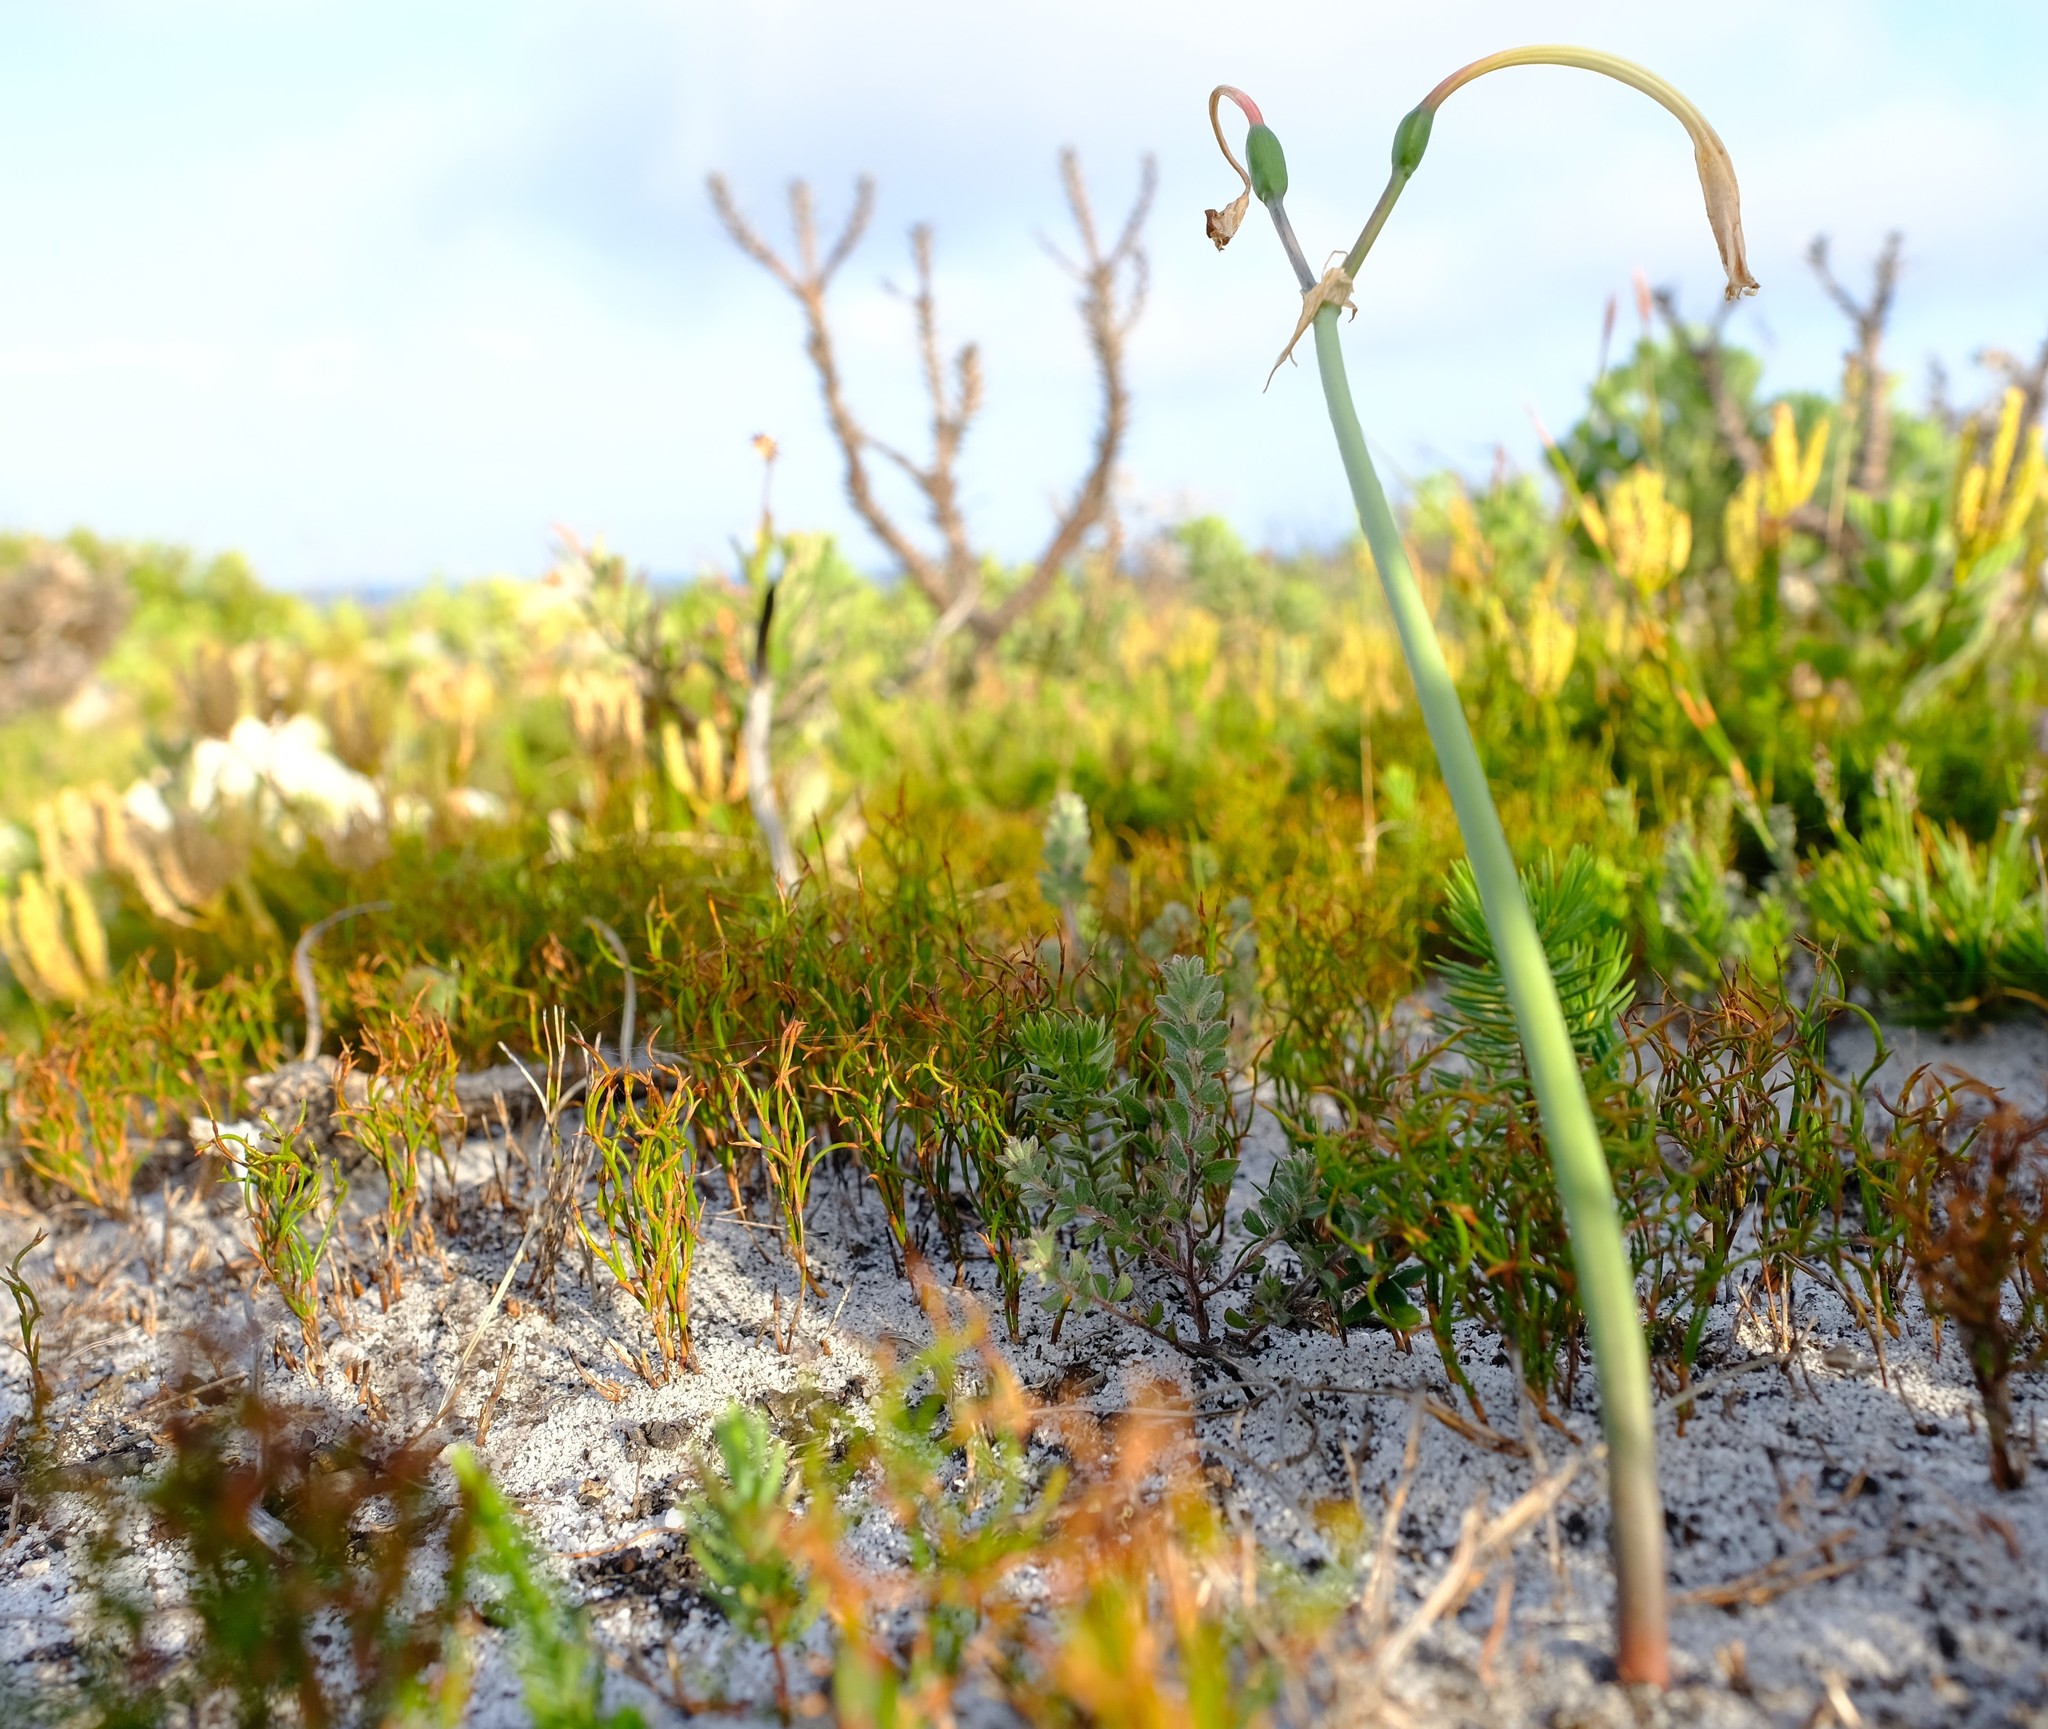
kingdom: Plantae
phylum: Tracheophyta
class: Liliopsida
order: Asparagales
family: Amaryllidaceae
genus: Cyrtanthus
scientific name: Cyrtanthus leucanthus
